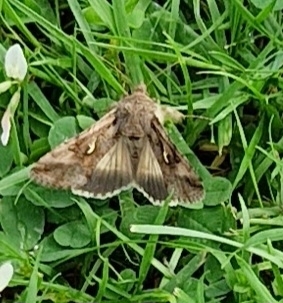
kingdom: Animalia
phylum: Arthropoda
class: Insecta
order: Lepidoptera
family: Noctuidae
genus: Autographa
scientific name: Autographa gamma
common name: Silver y
